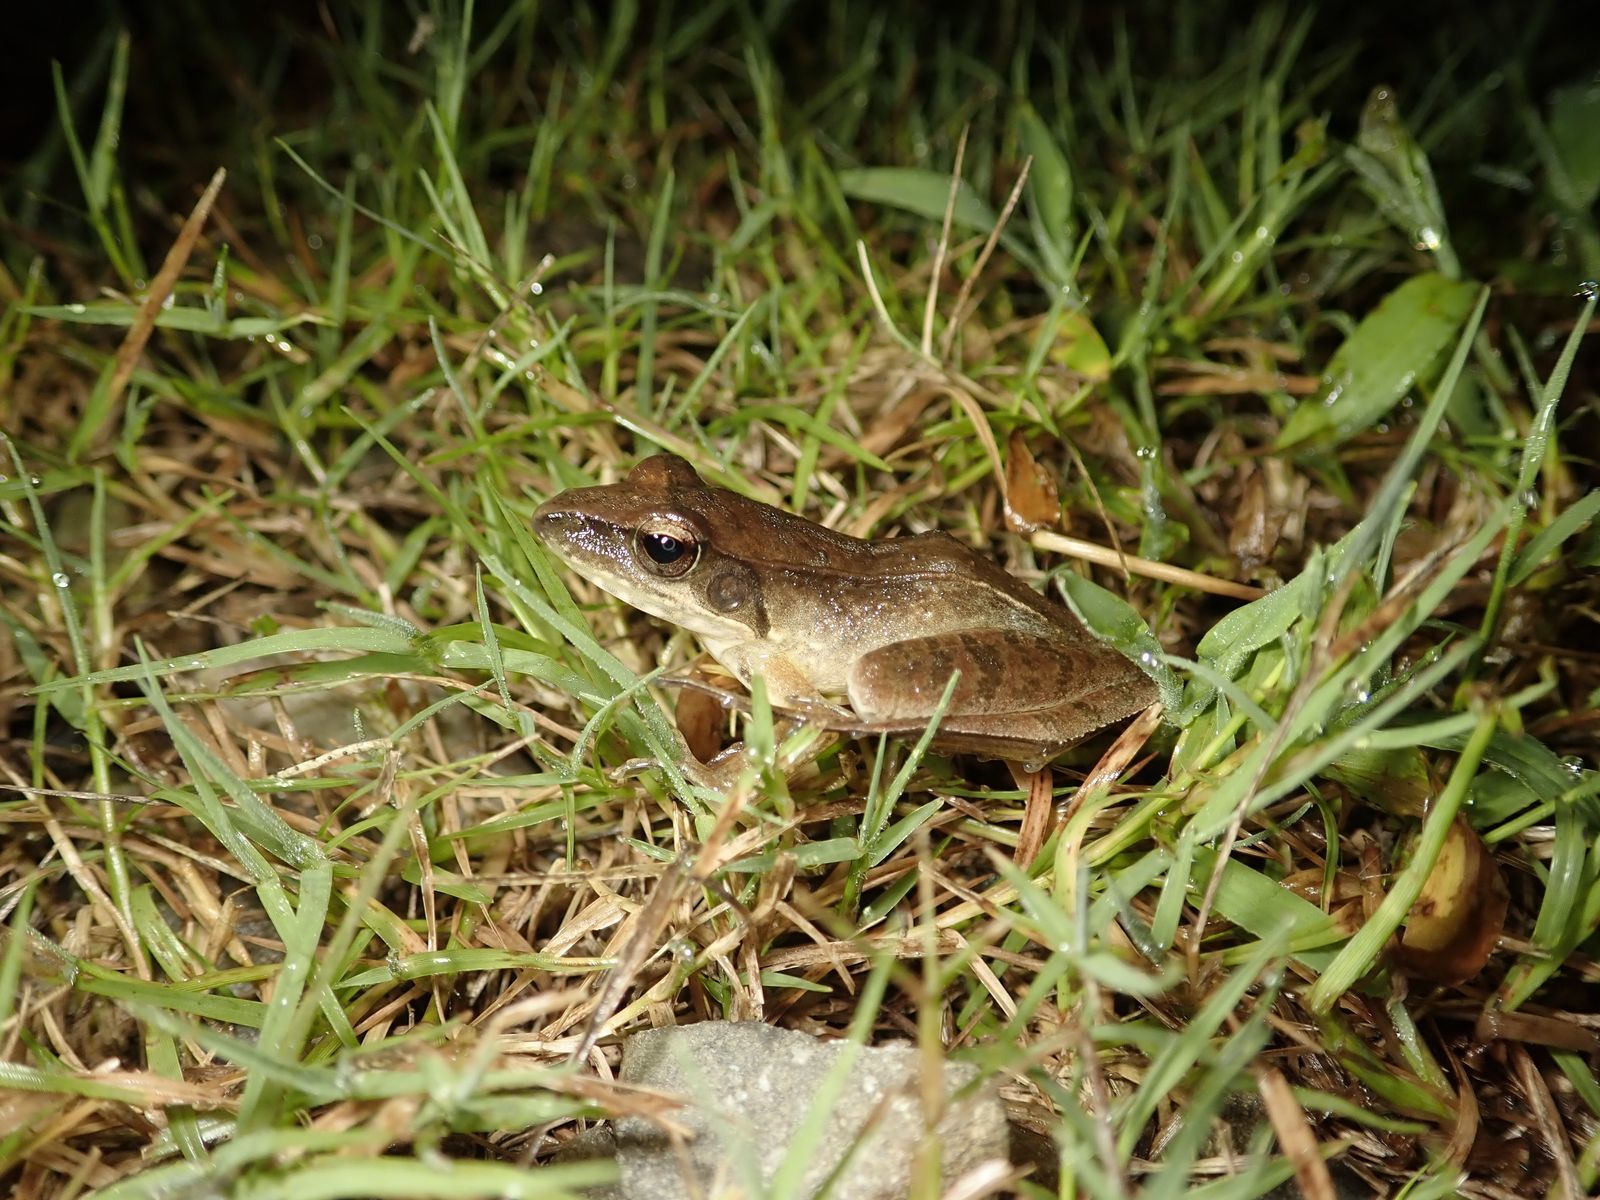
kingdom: Animalia
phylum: Chordata
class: Amphibia
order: Anura
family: Ranidae
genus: Rana
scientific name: Rana longicrus
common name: Long-legged brown frog
